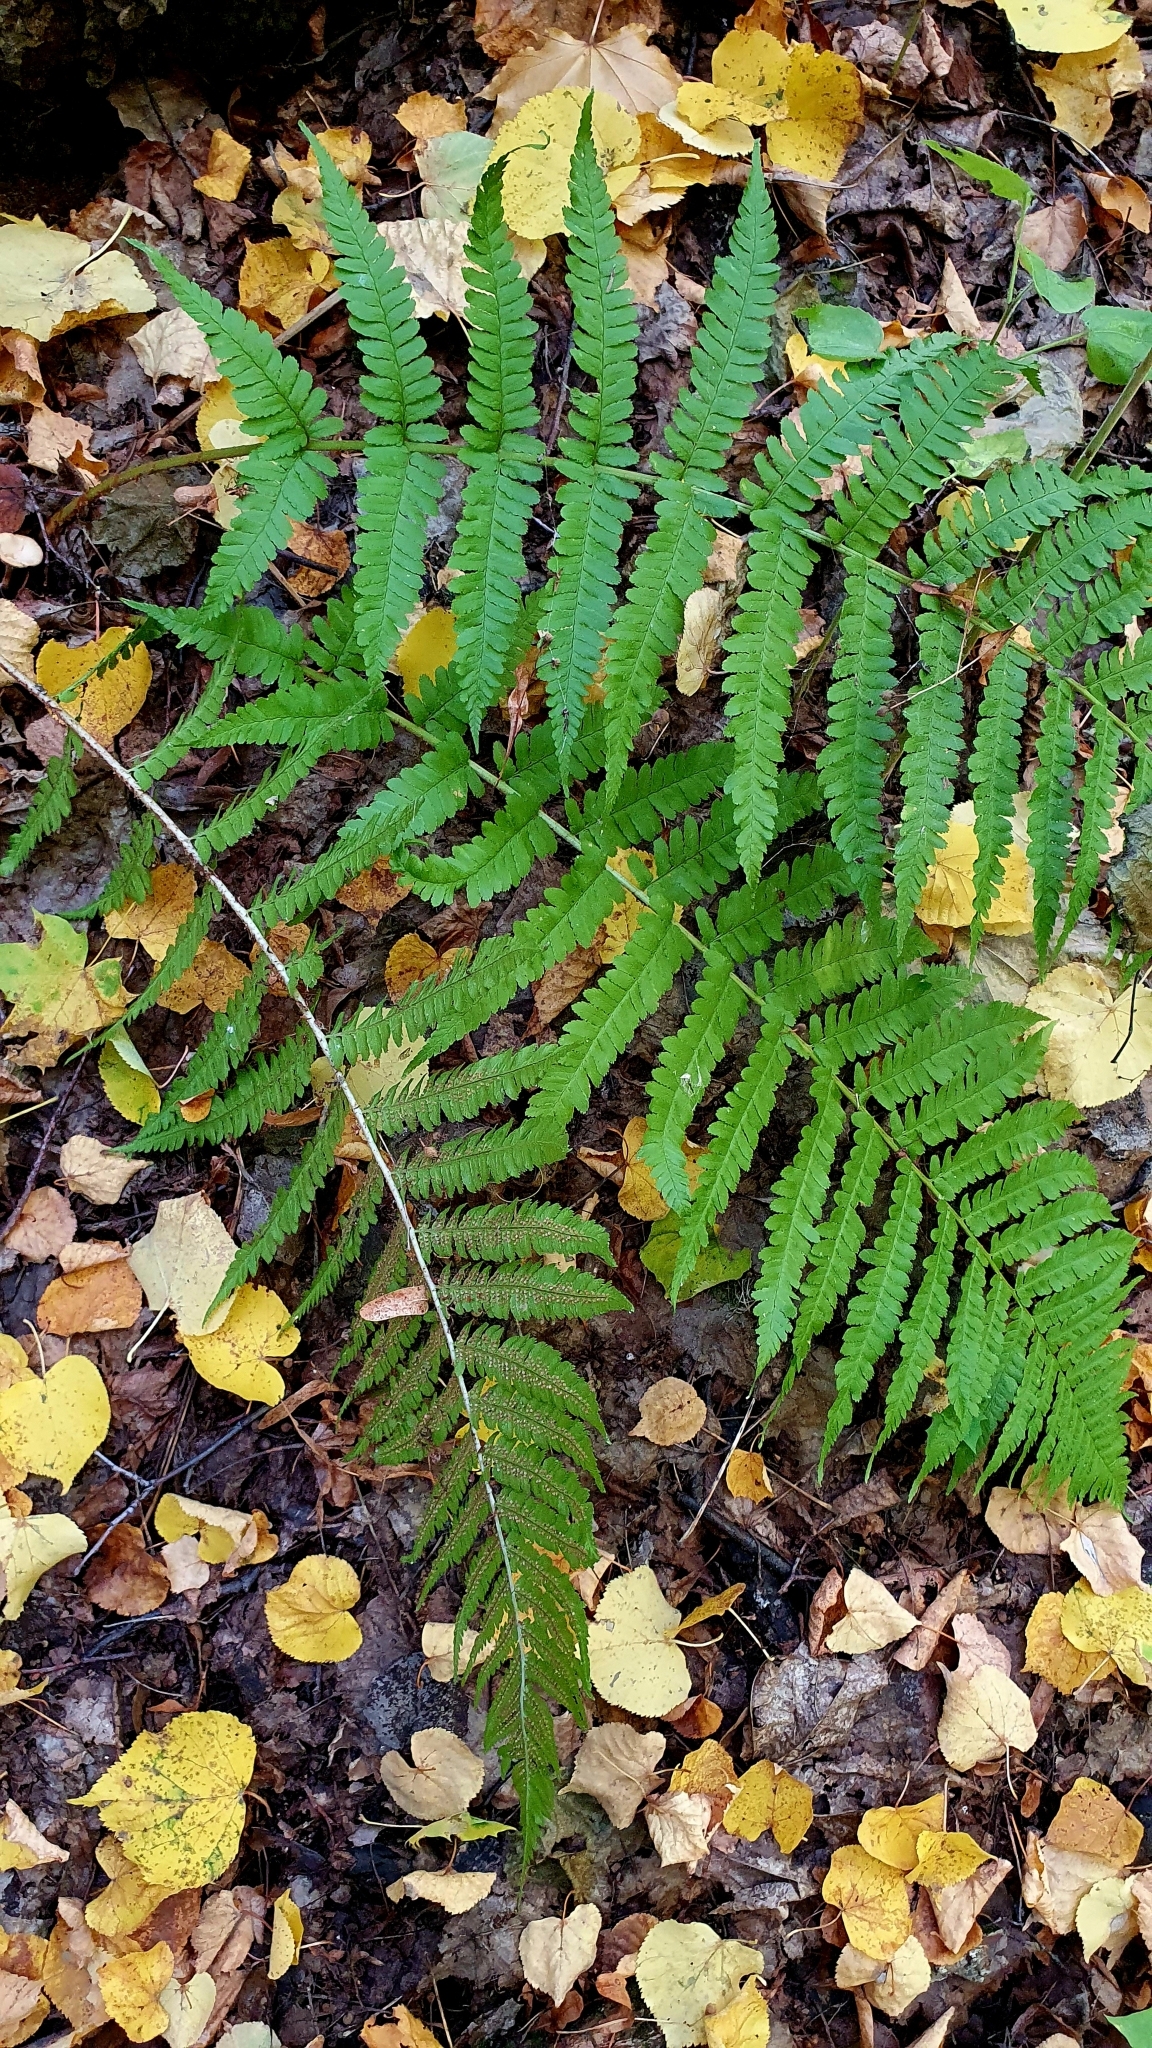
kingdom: Plantae
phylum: Tracheophyta
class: Polypodiopsida
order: Polypodiales
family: Dryopteridaceae
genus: Dryopteris
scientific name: Dryopteris filix-mas
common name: Male fern
